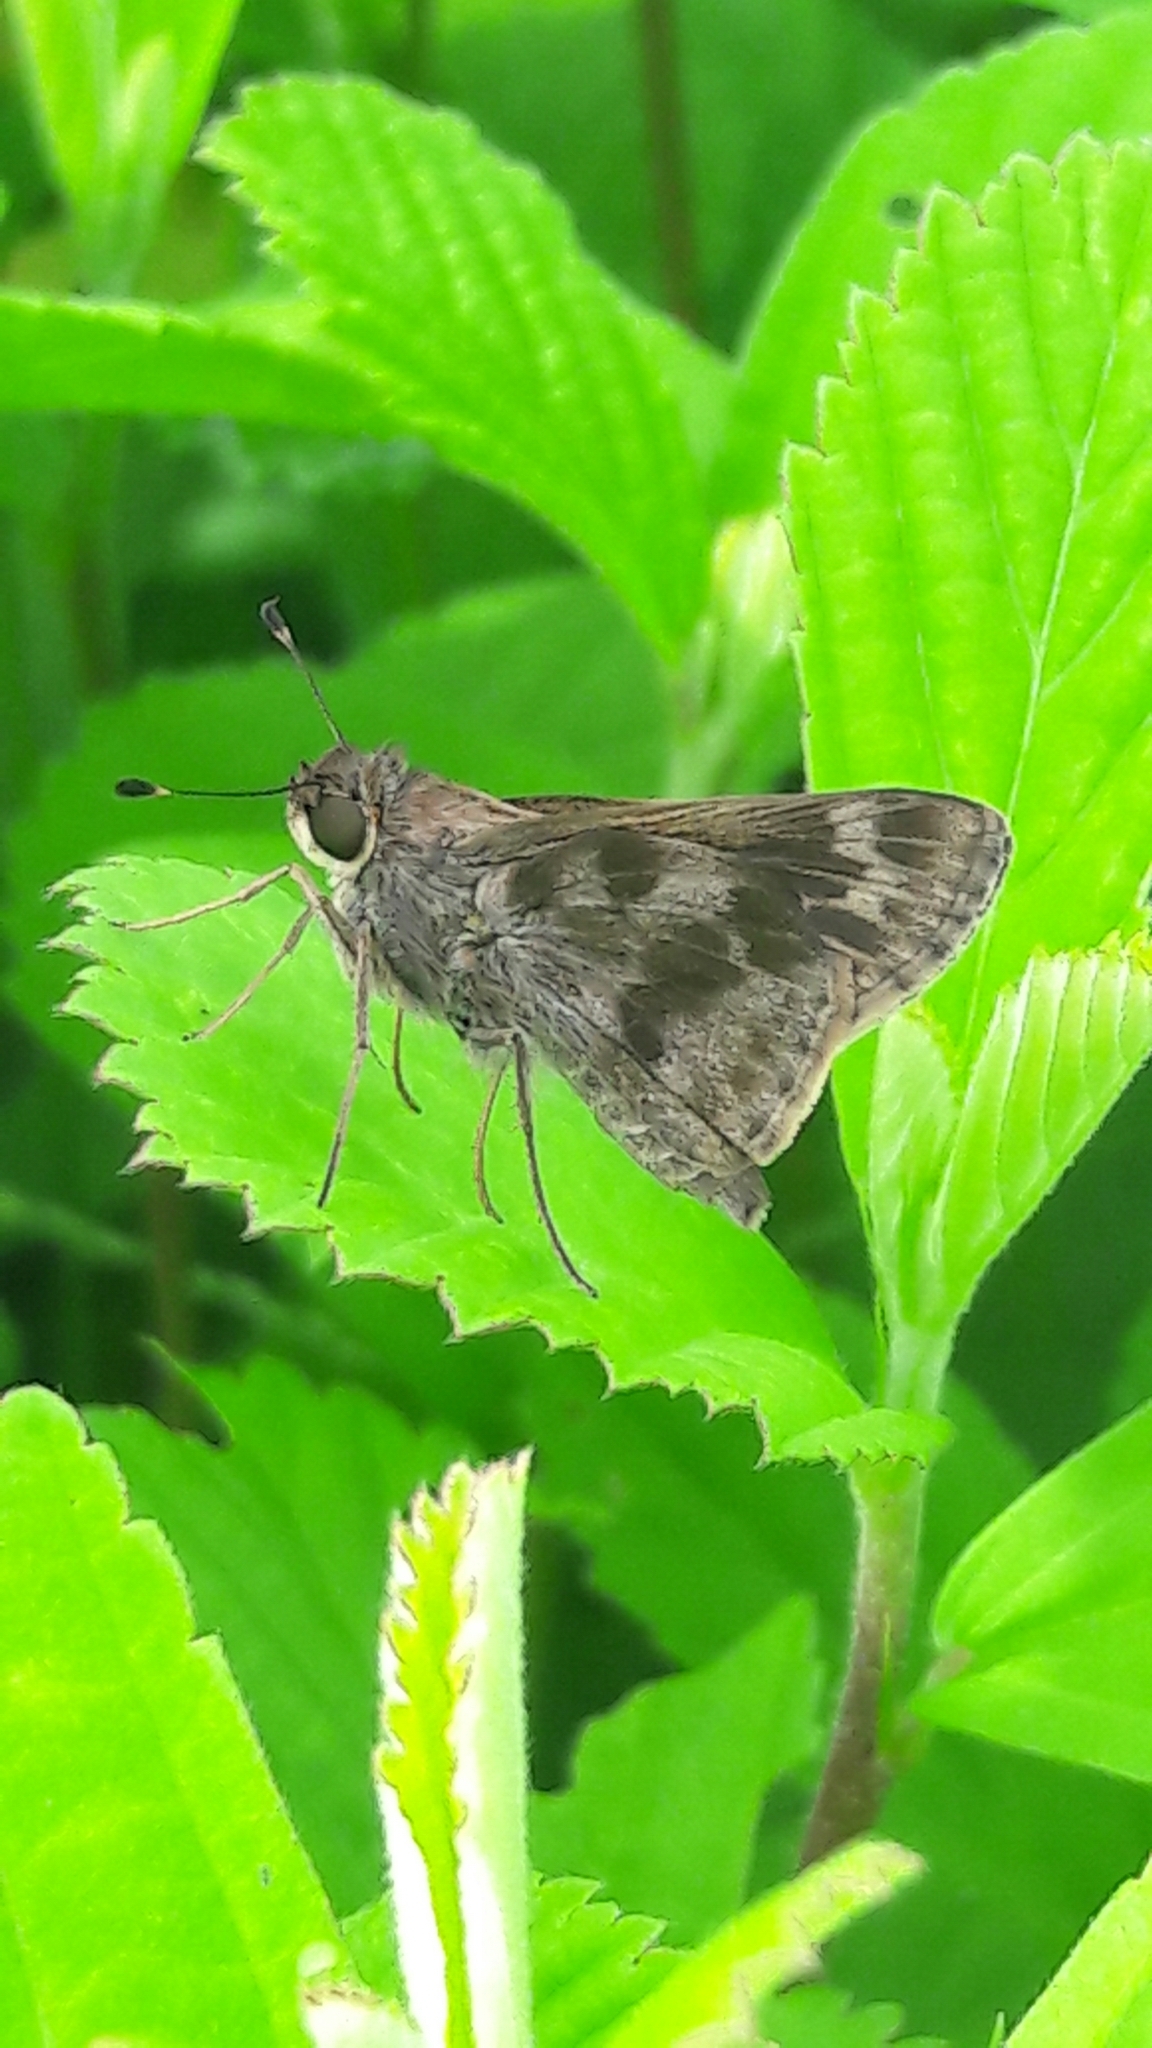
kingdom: Animalia
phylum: Arthropoda
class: Insecta
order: Lepidoptera
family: Hesperiidae
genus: Pompeius
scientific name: Pompeius pompeius
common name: Pompeius skipper
